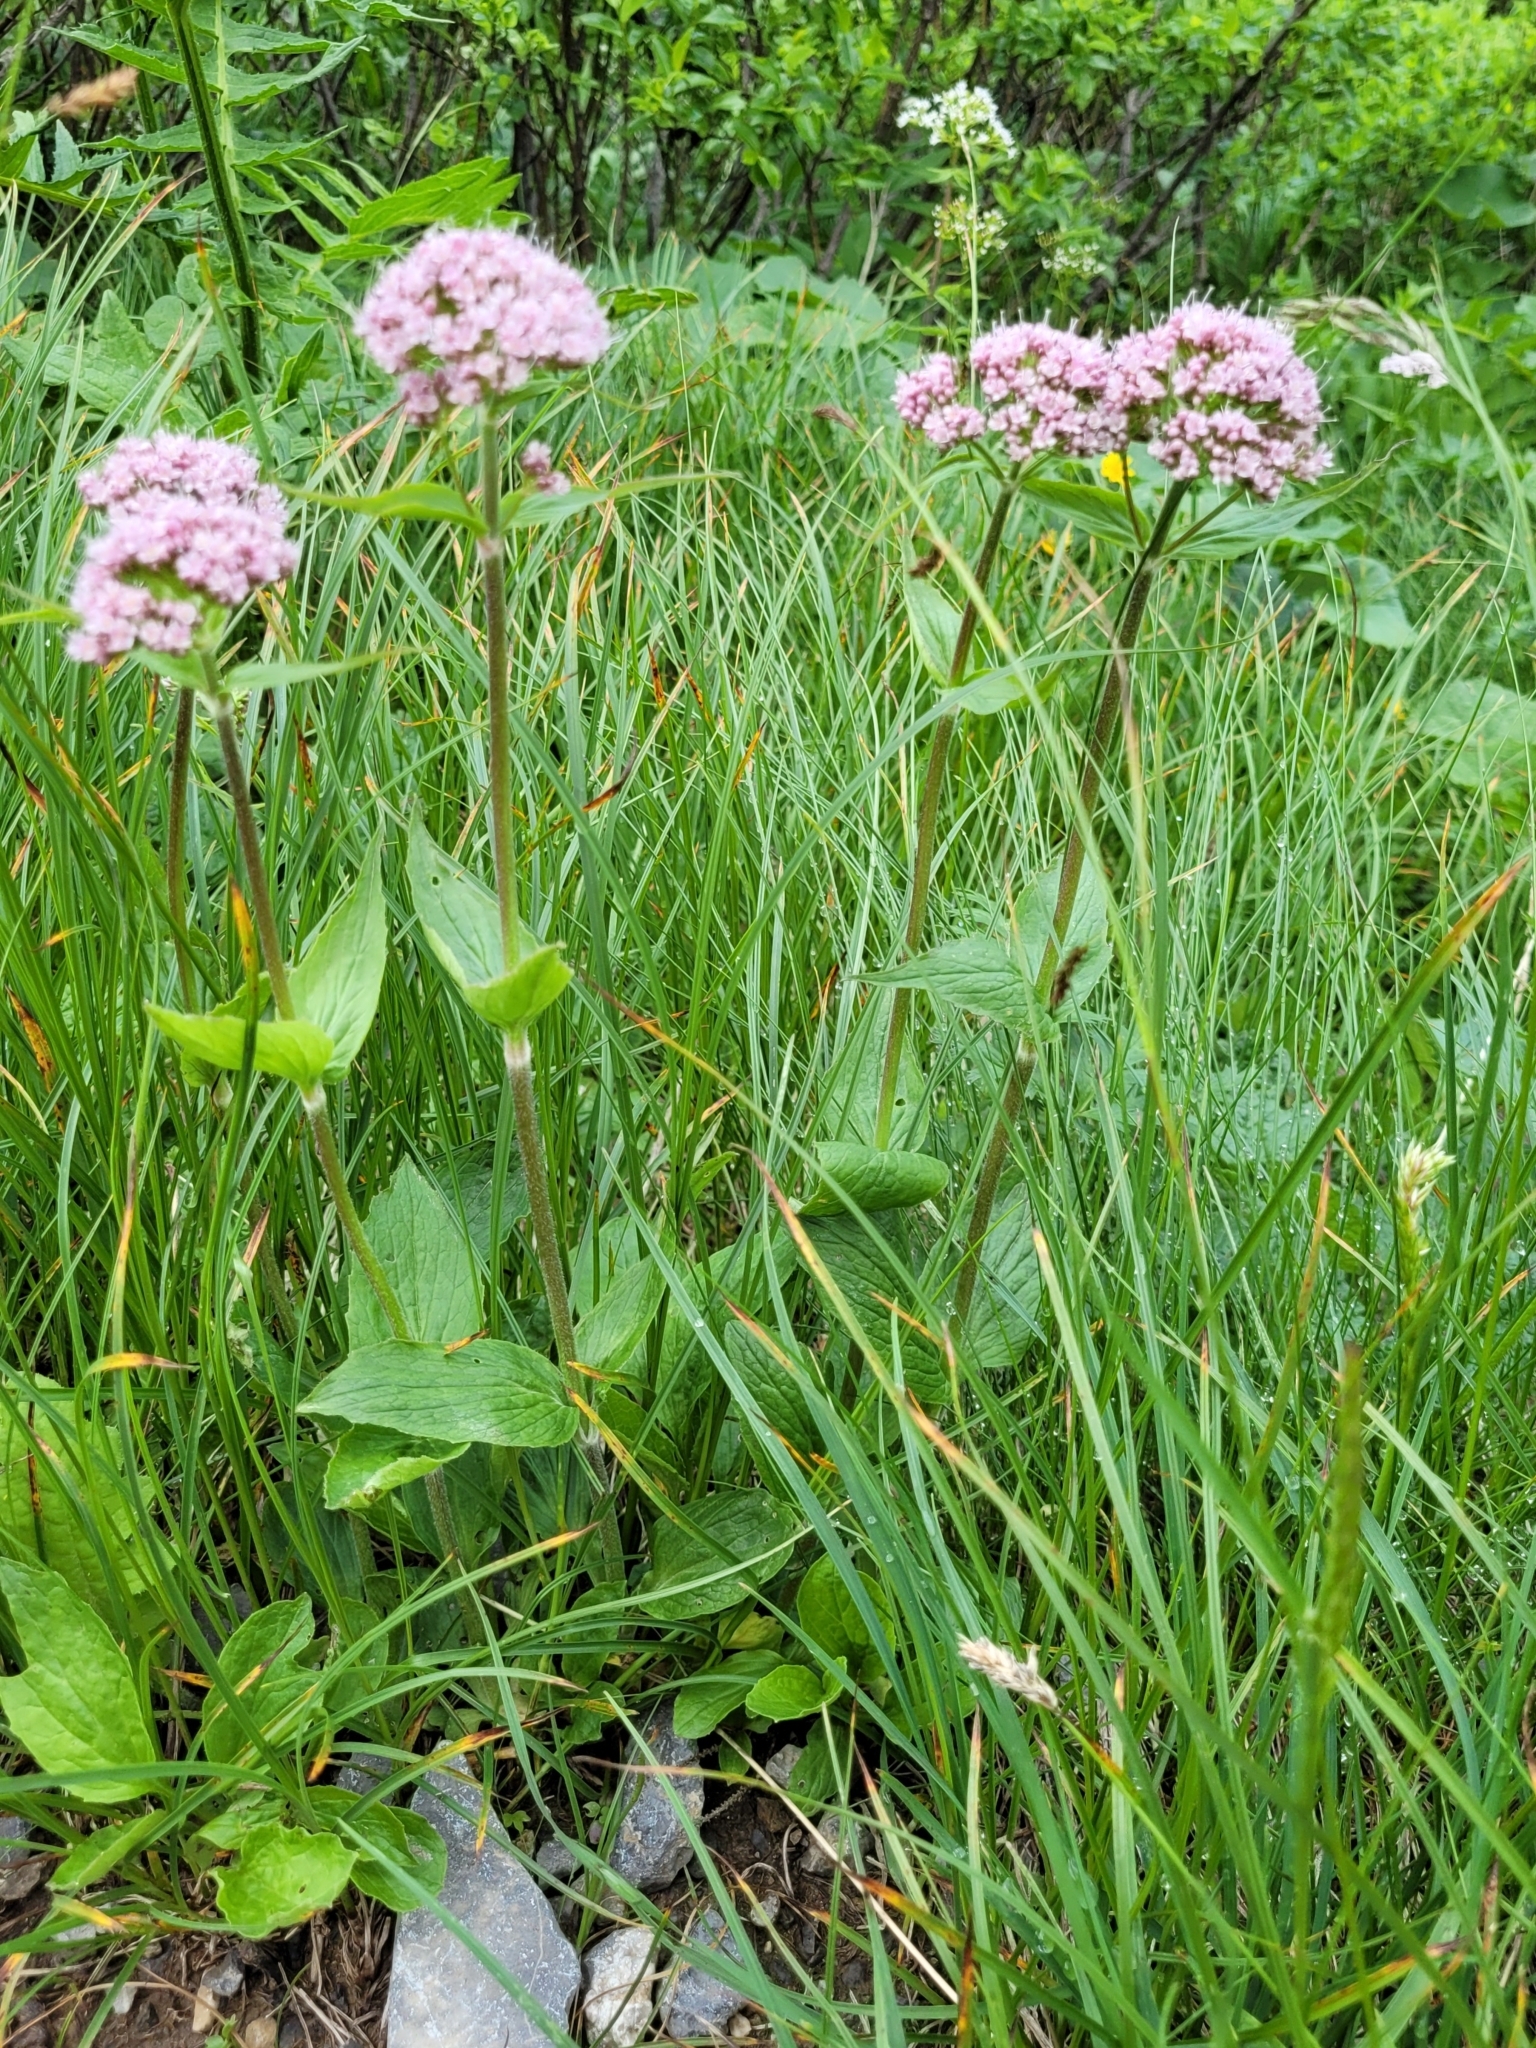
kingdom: Plantae
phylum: Tracheophyta
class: Magnoliopsida
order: Dipsacales
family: Caprifoliaceae
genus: Valeriana
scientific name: Valeriana montana
